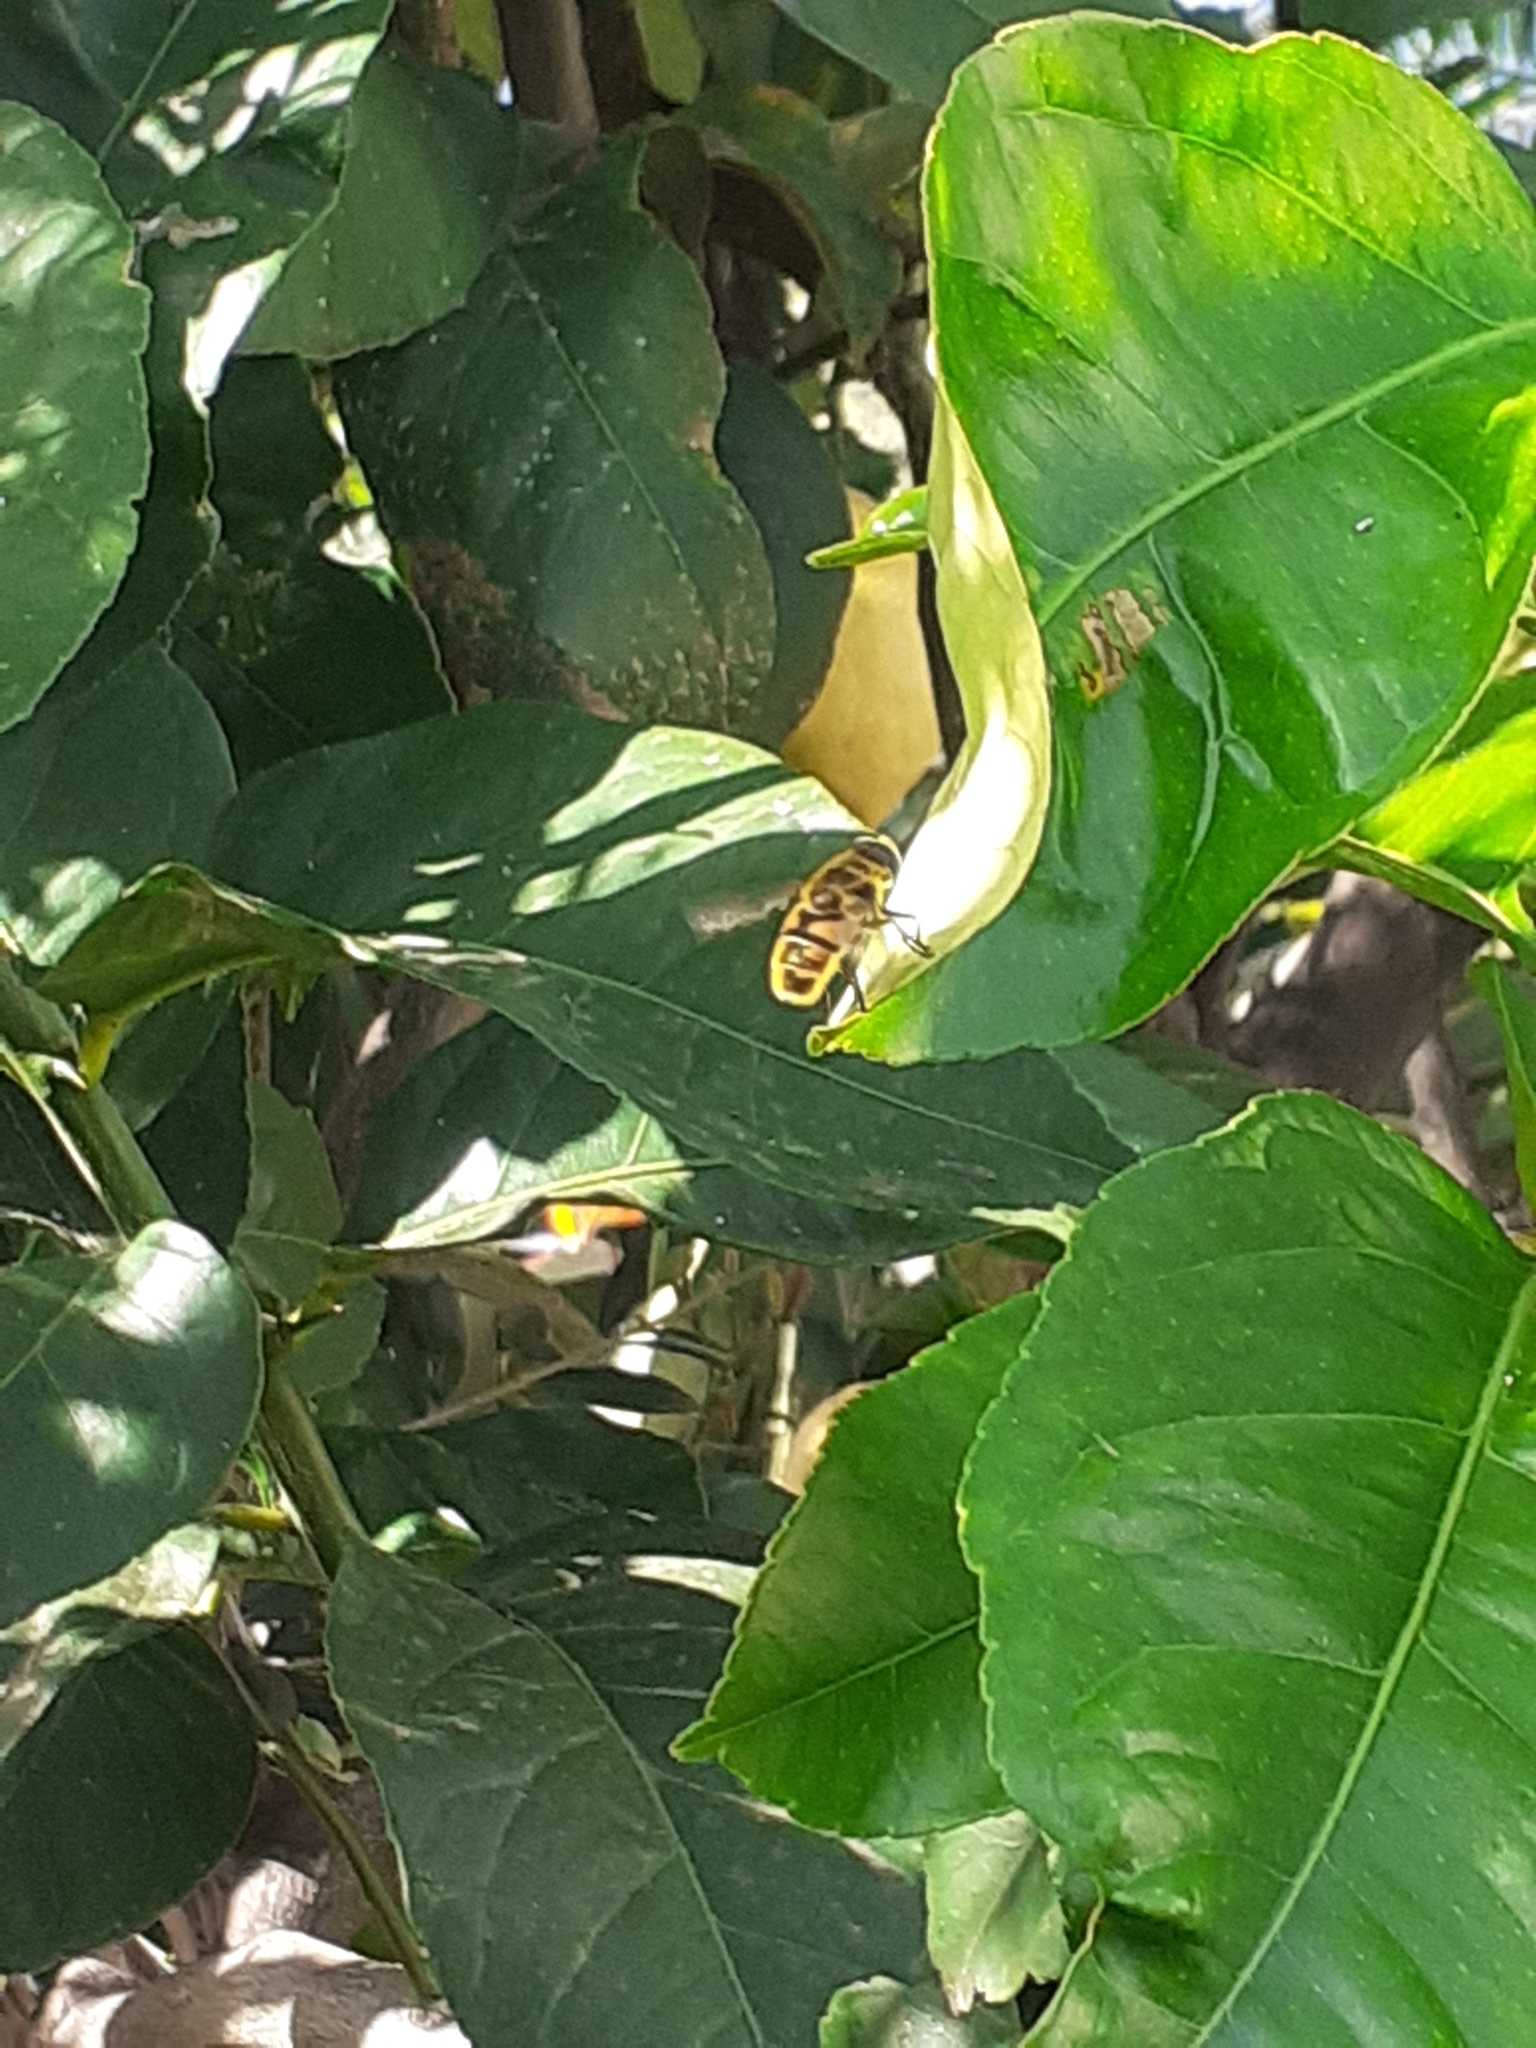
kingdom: Animalia
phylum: Arthropoda
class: Insecta
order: Diptera
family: Syrphidae
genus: Myathropa
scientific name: Myathropa florea
